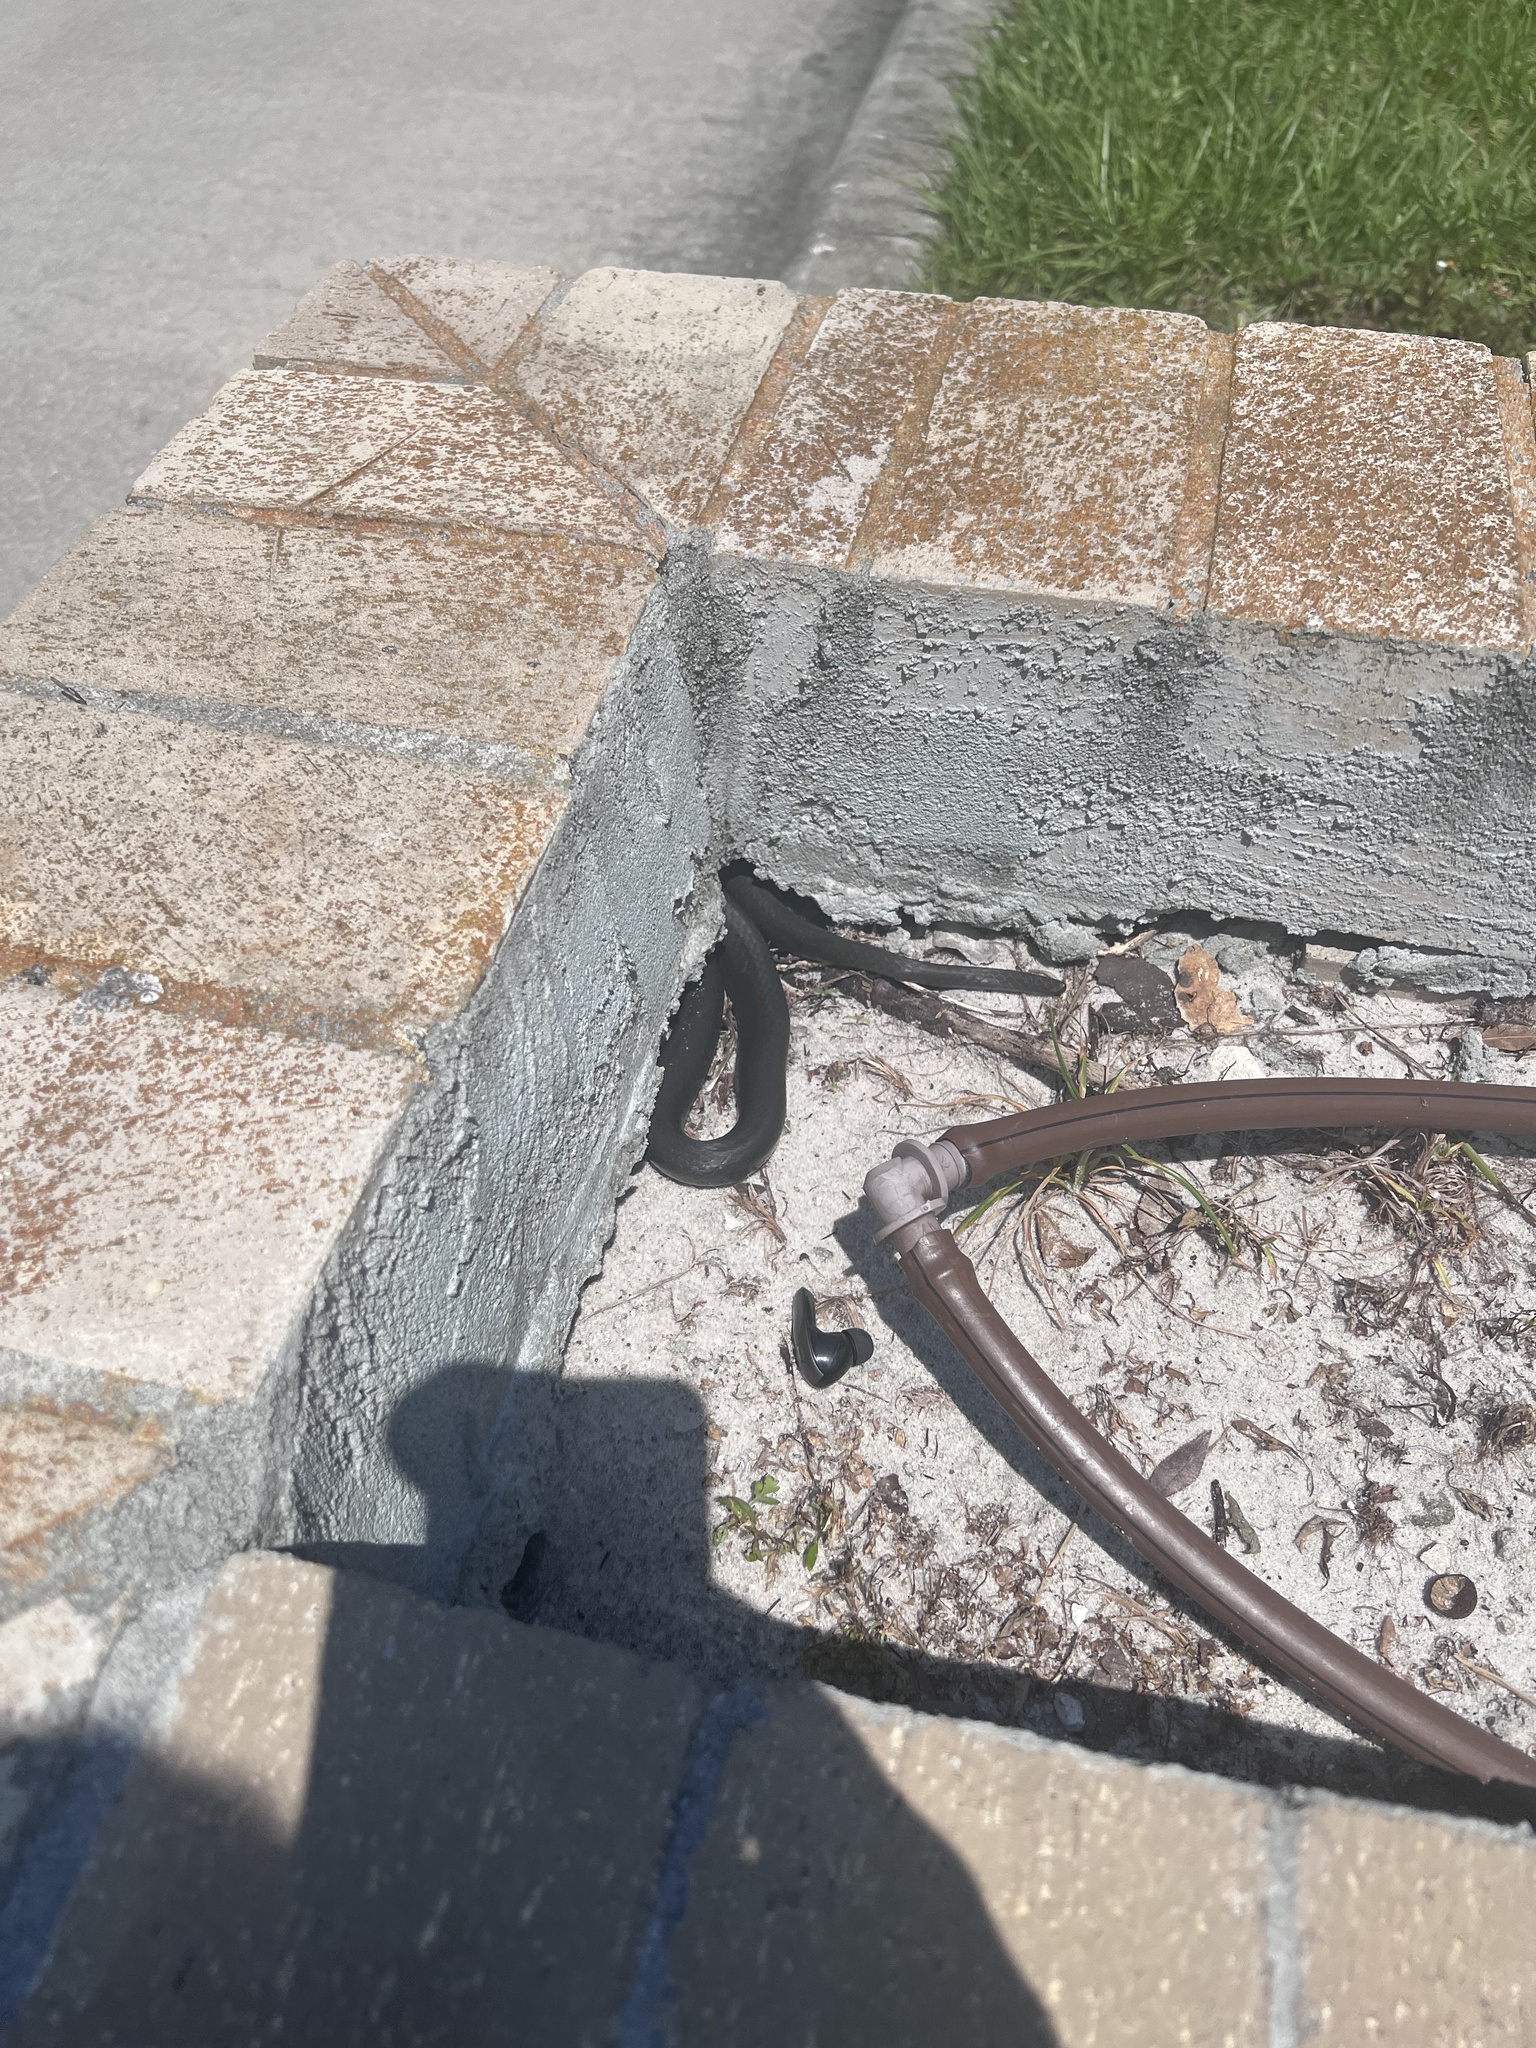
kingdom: Animalia
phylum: Chordata
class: Squamata
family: Colubridae
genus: Coluber
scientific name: Coluber constrictor
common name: Eastern racer
